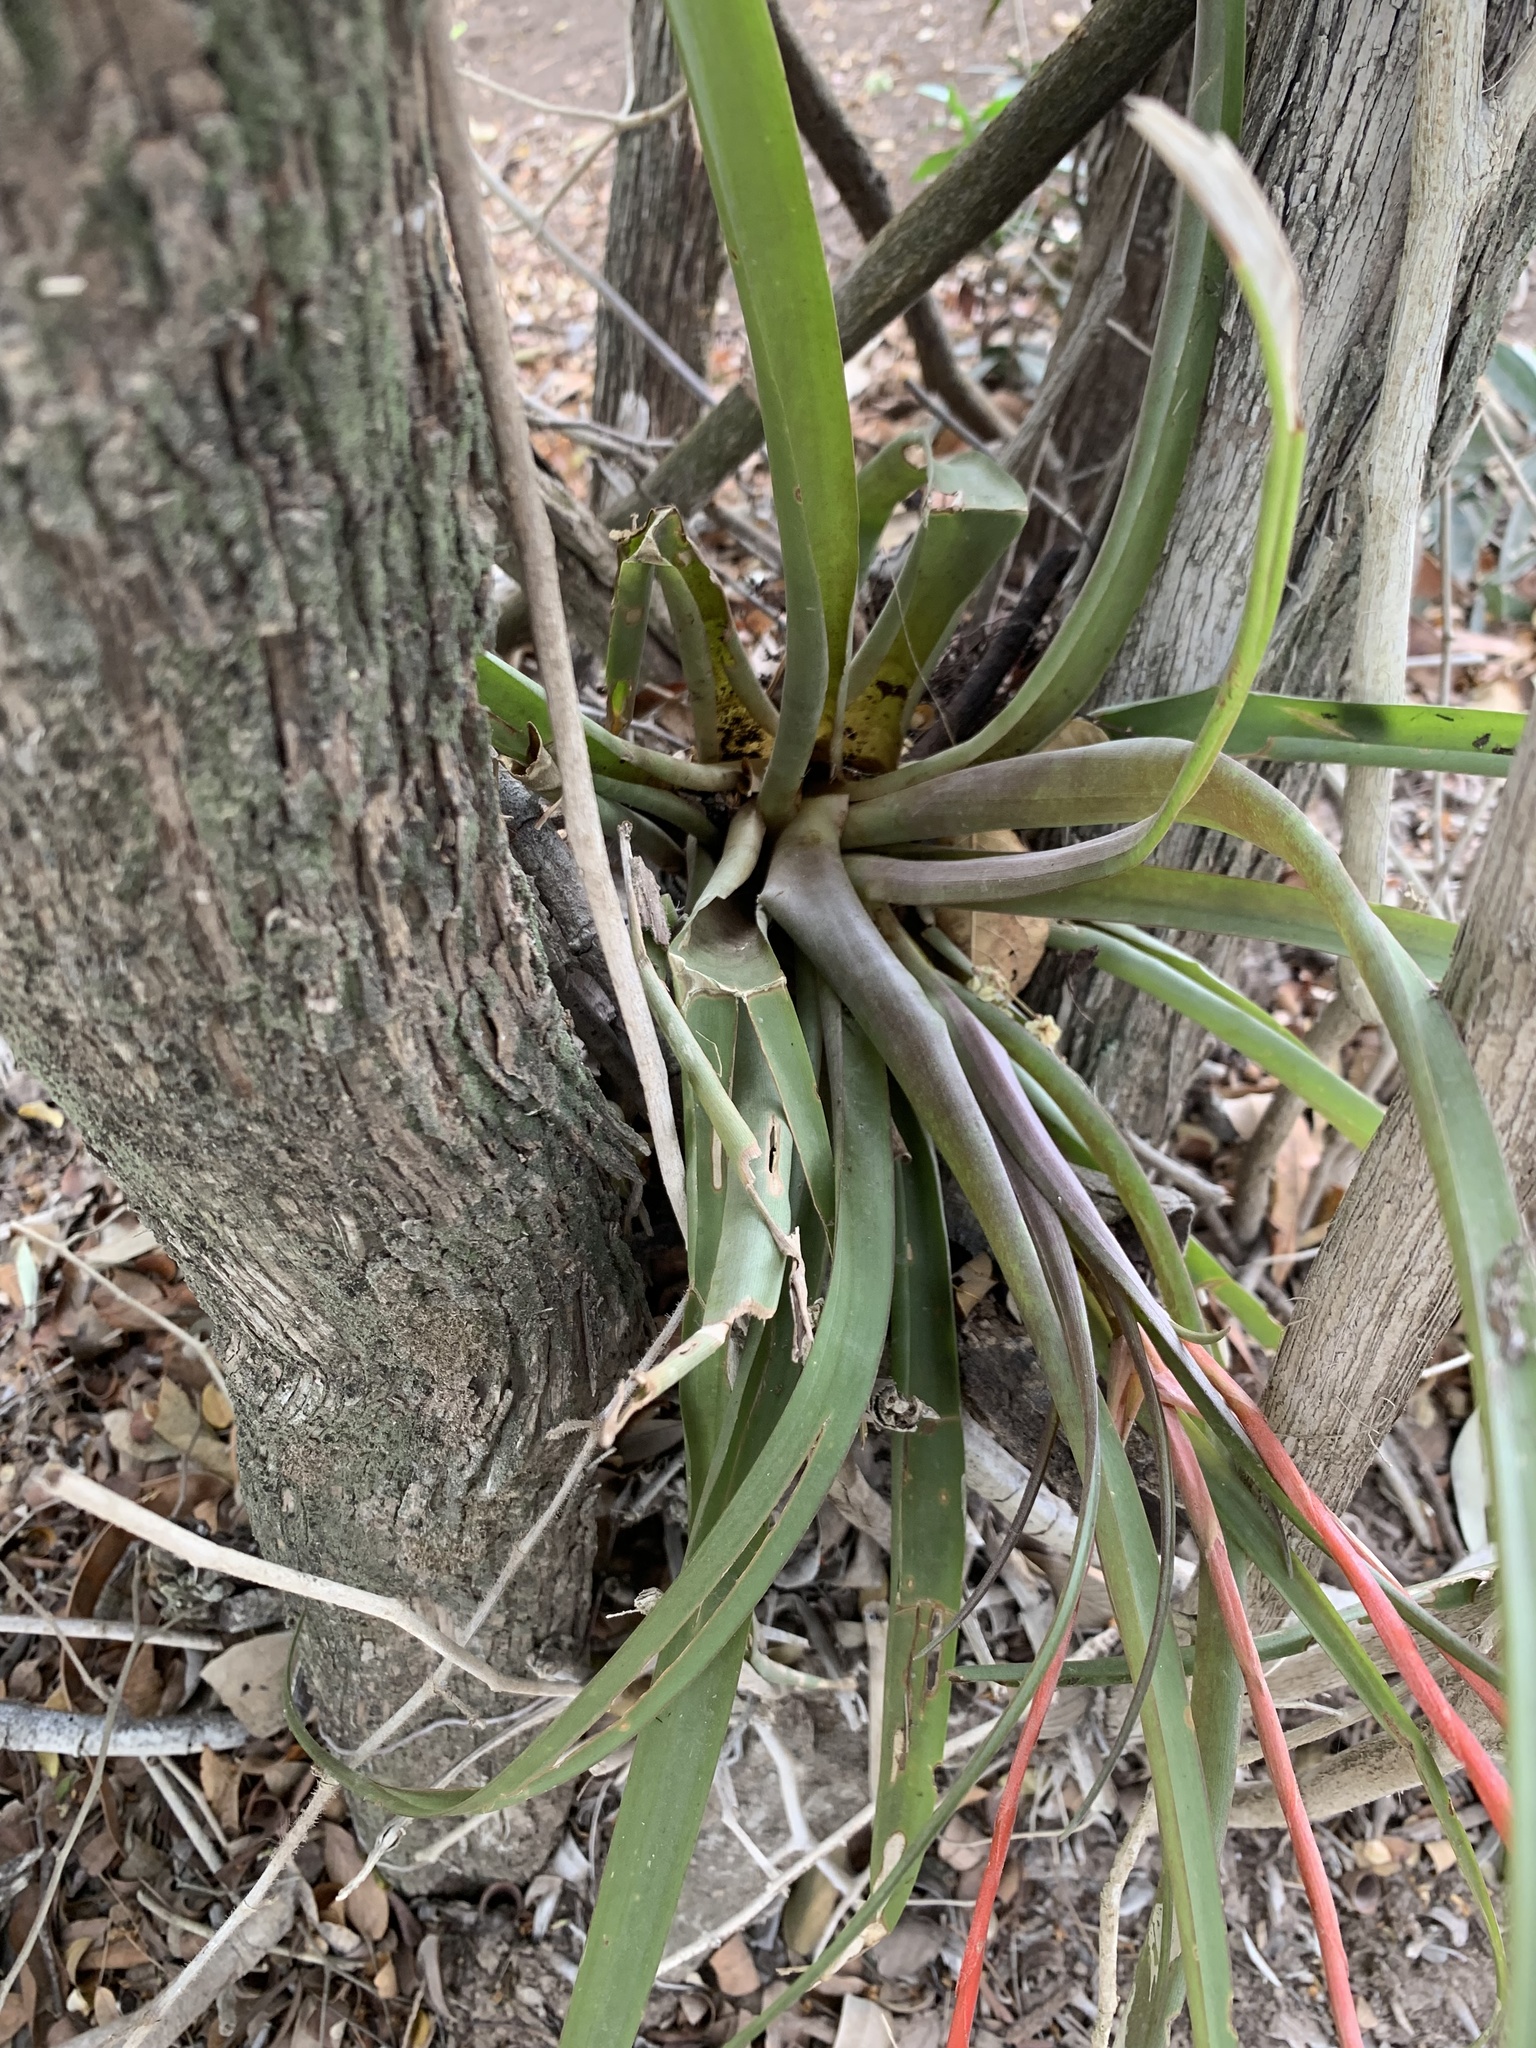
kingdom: Plantae
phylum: Tracheophyta
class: Liliopsida
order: Poales
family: Bromeliaceae
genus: Tillandsia
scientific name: Tillandsia flabellata
